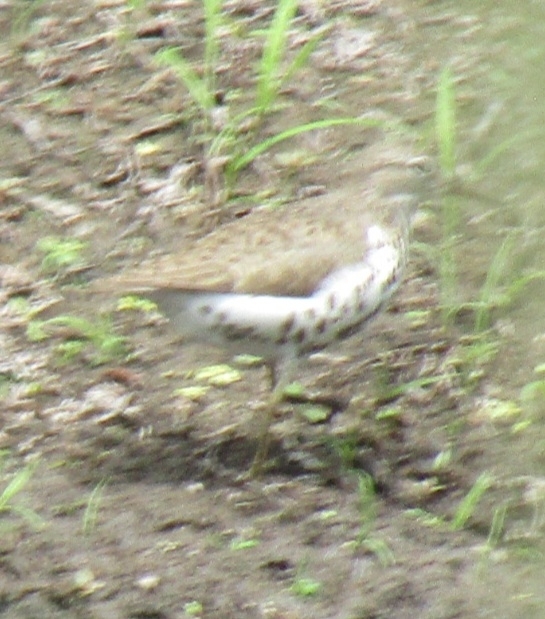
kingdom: Animalia
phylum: Chordata
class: Aves
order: Charadriiformes
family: Scolopacidae
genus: Actitis
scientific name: Actitis macularius
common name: Spotted sandpiper
